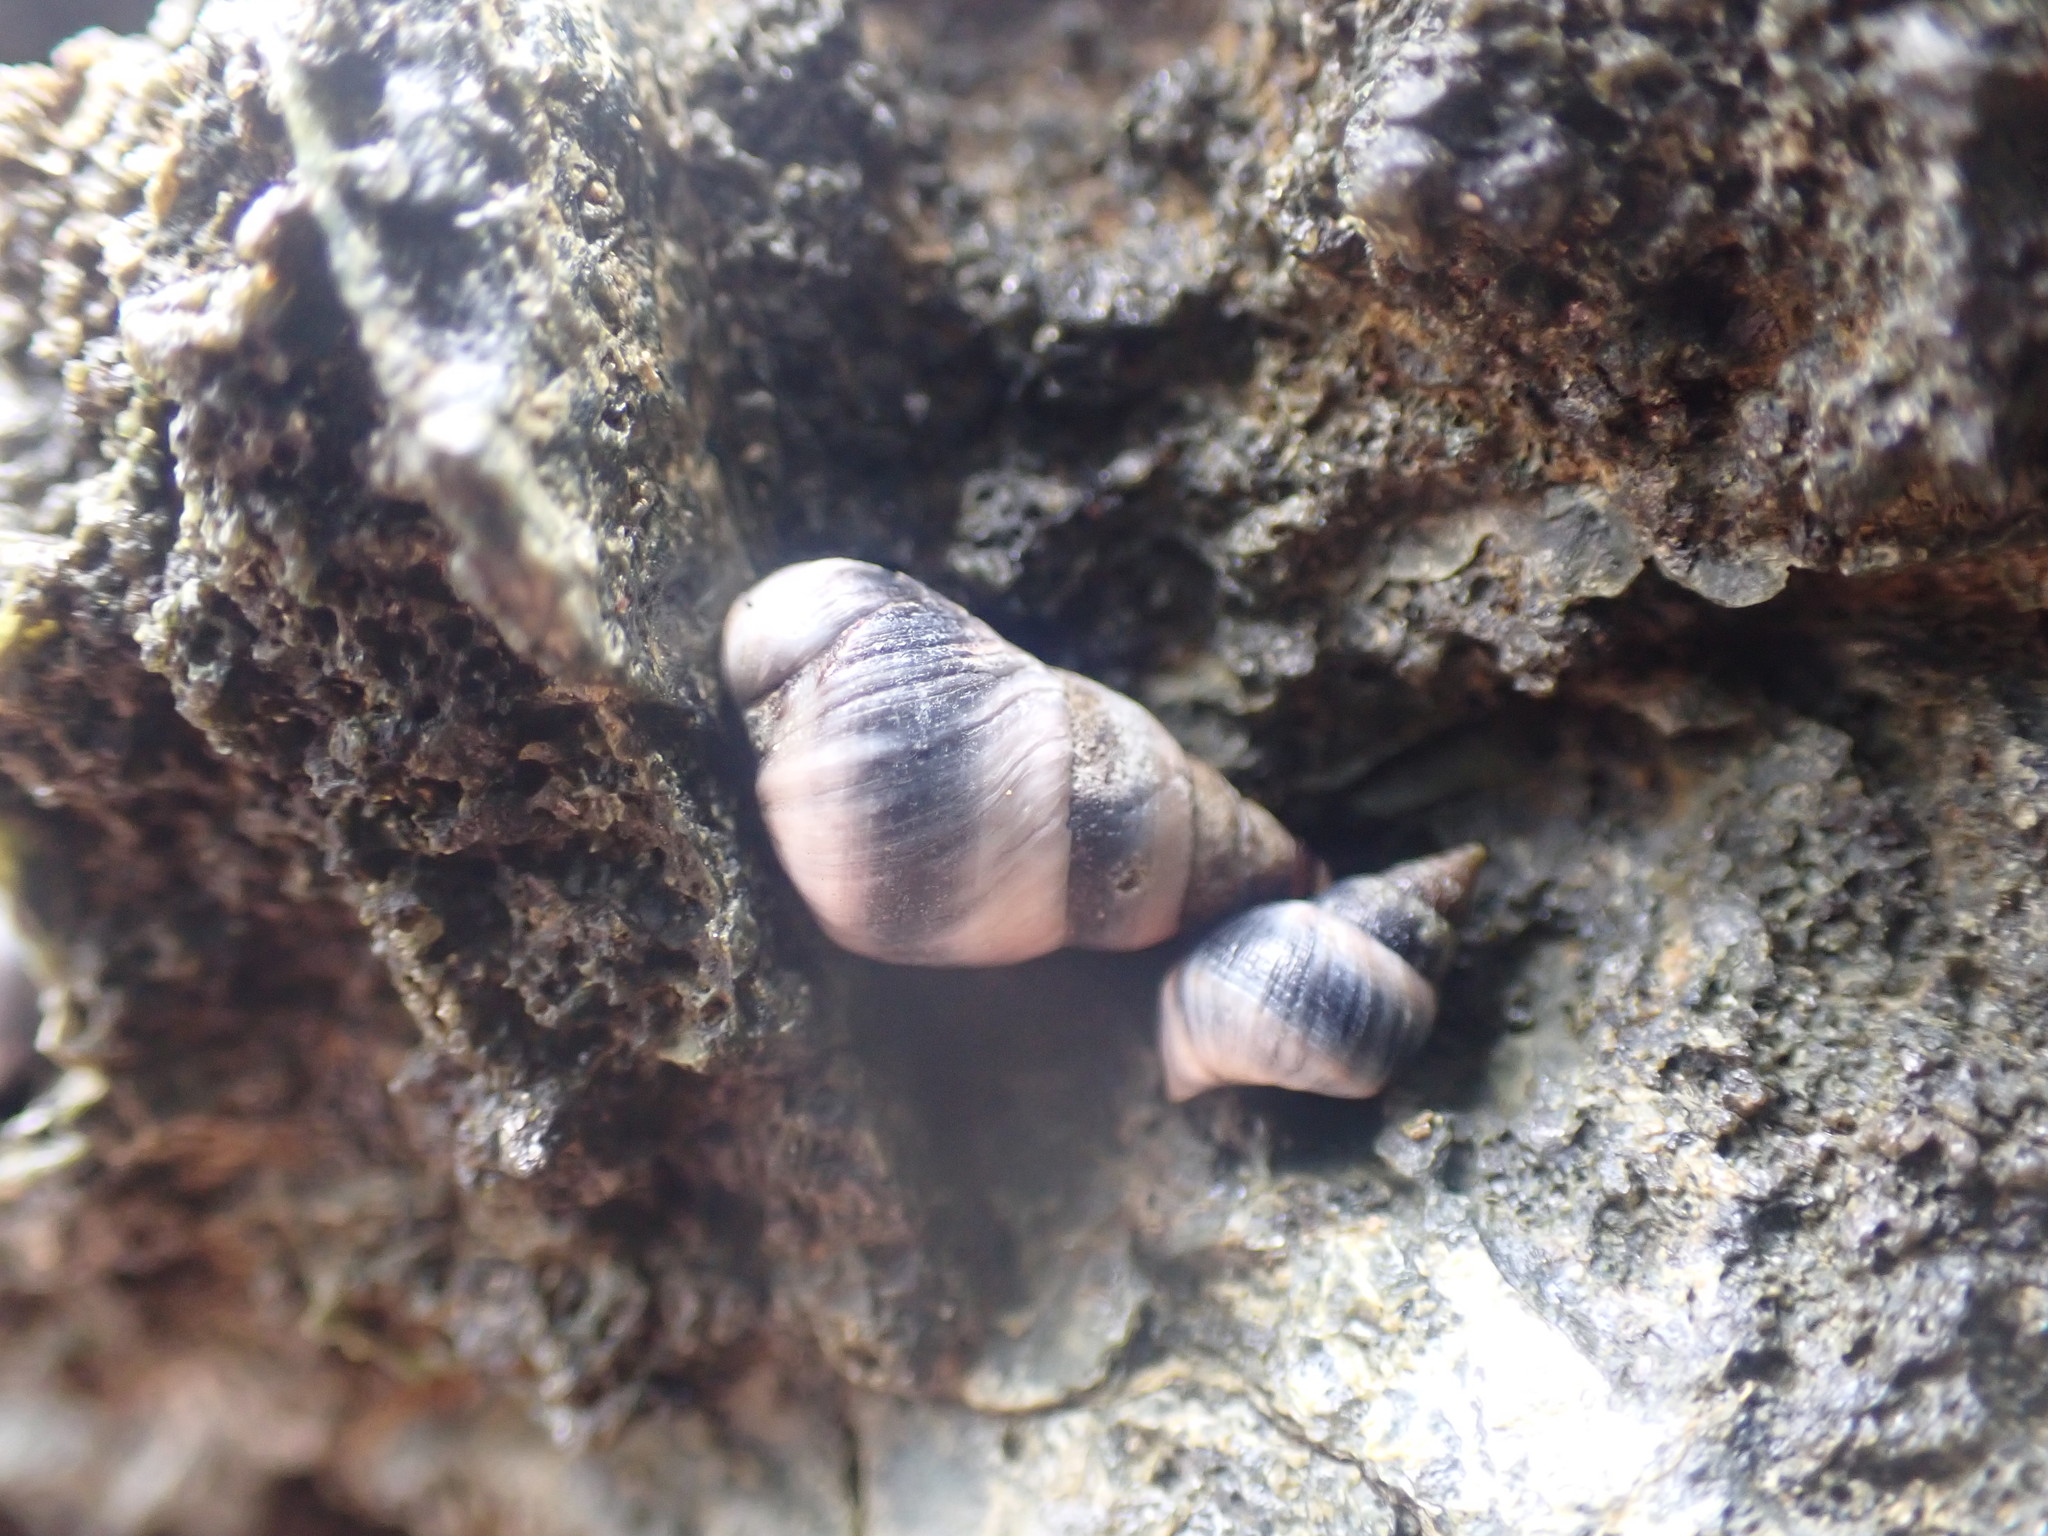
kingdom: Animalia
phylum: Mollusca
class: Gastropoda
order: Littorinimorpha
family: Littorinidae
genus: Austrolittorina
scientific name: Austrolittorina antipodum
